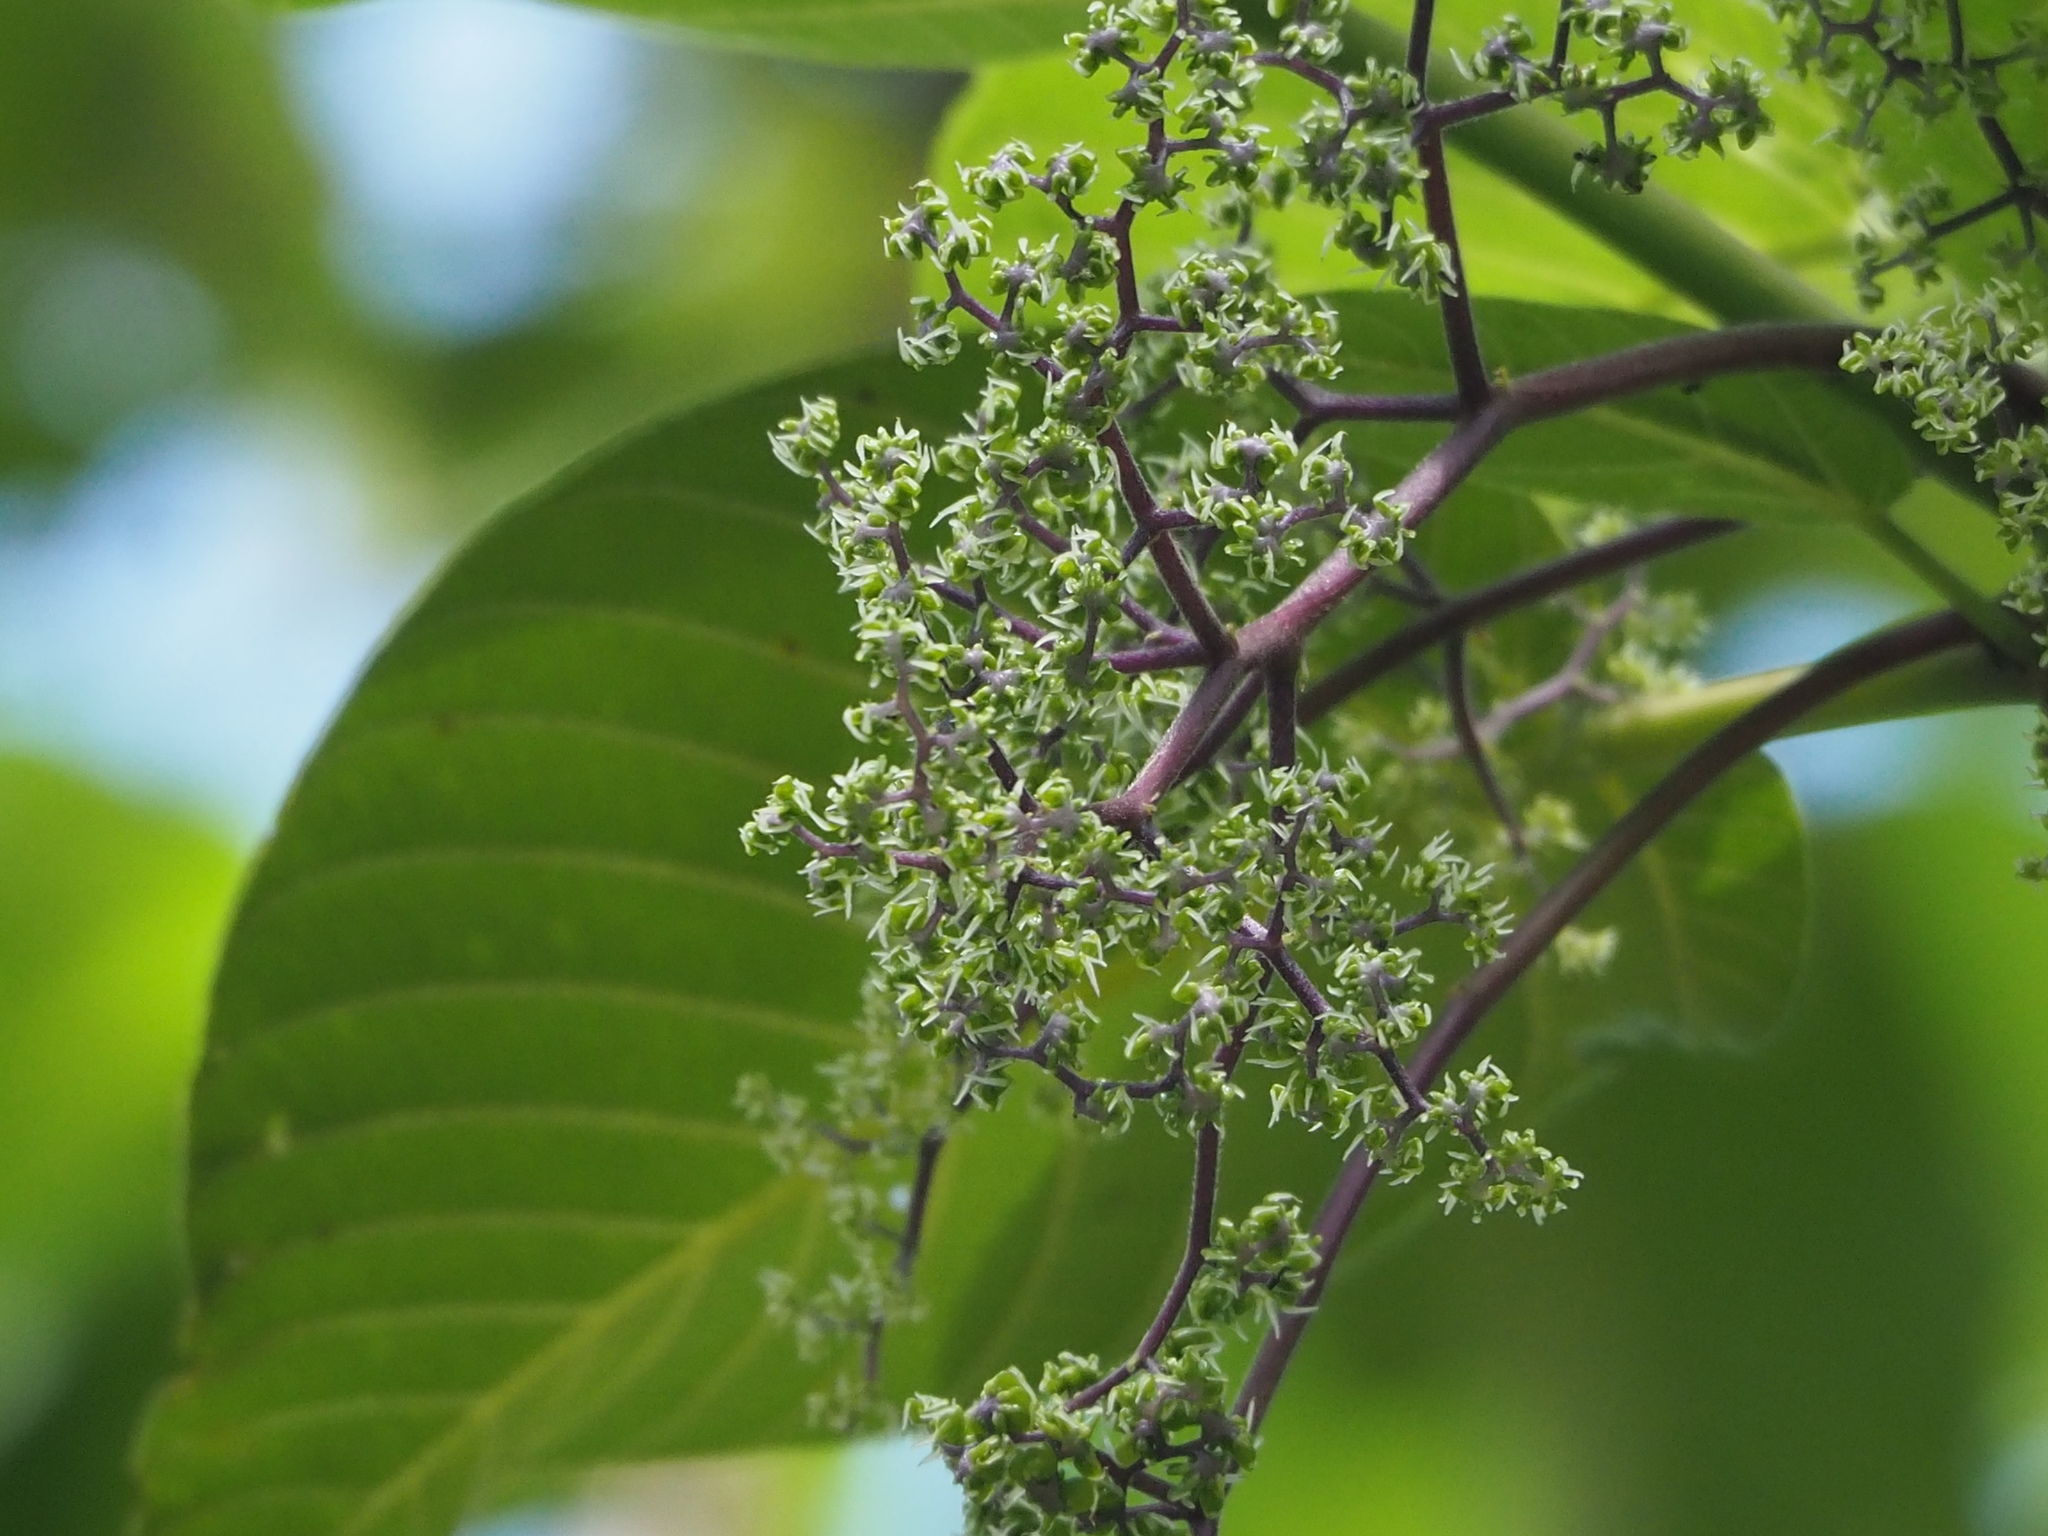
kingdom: Plantae
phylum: Tracheophyta
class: Magnoliopsida
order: Rosales
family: Urticaceae
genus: Dendrocnide
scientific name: Dendrocnide meyeniana
